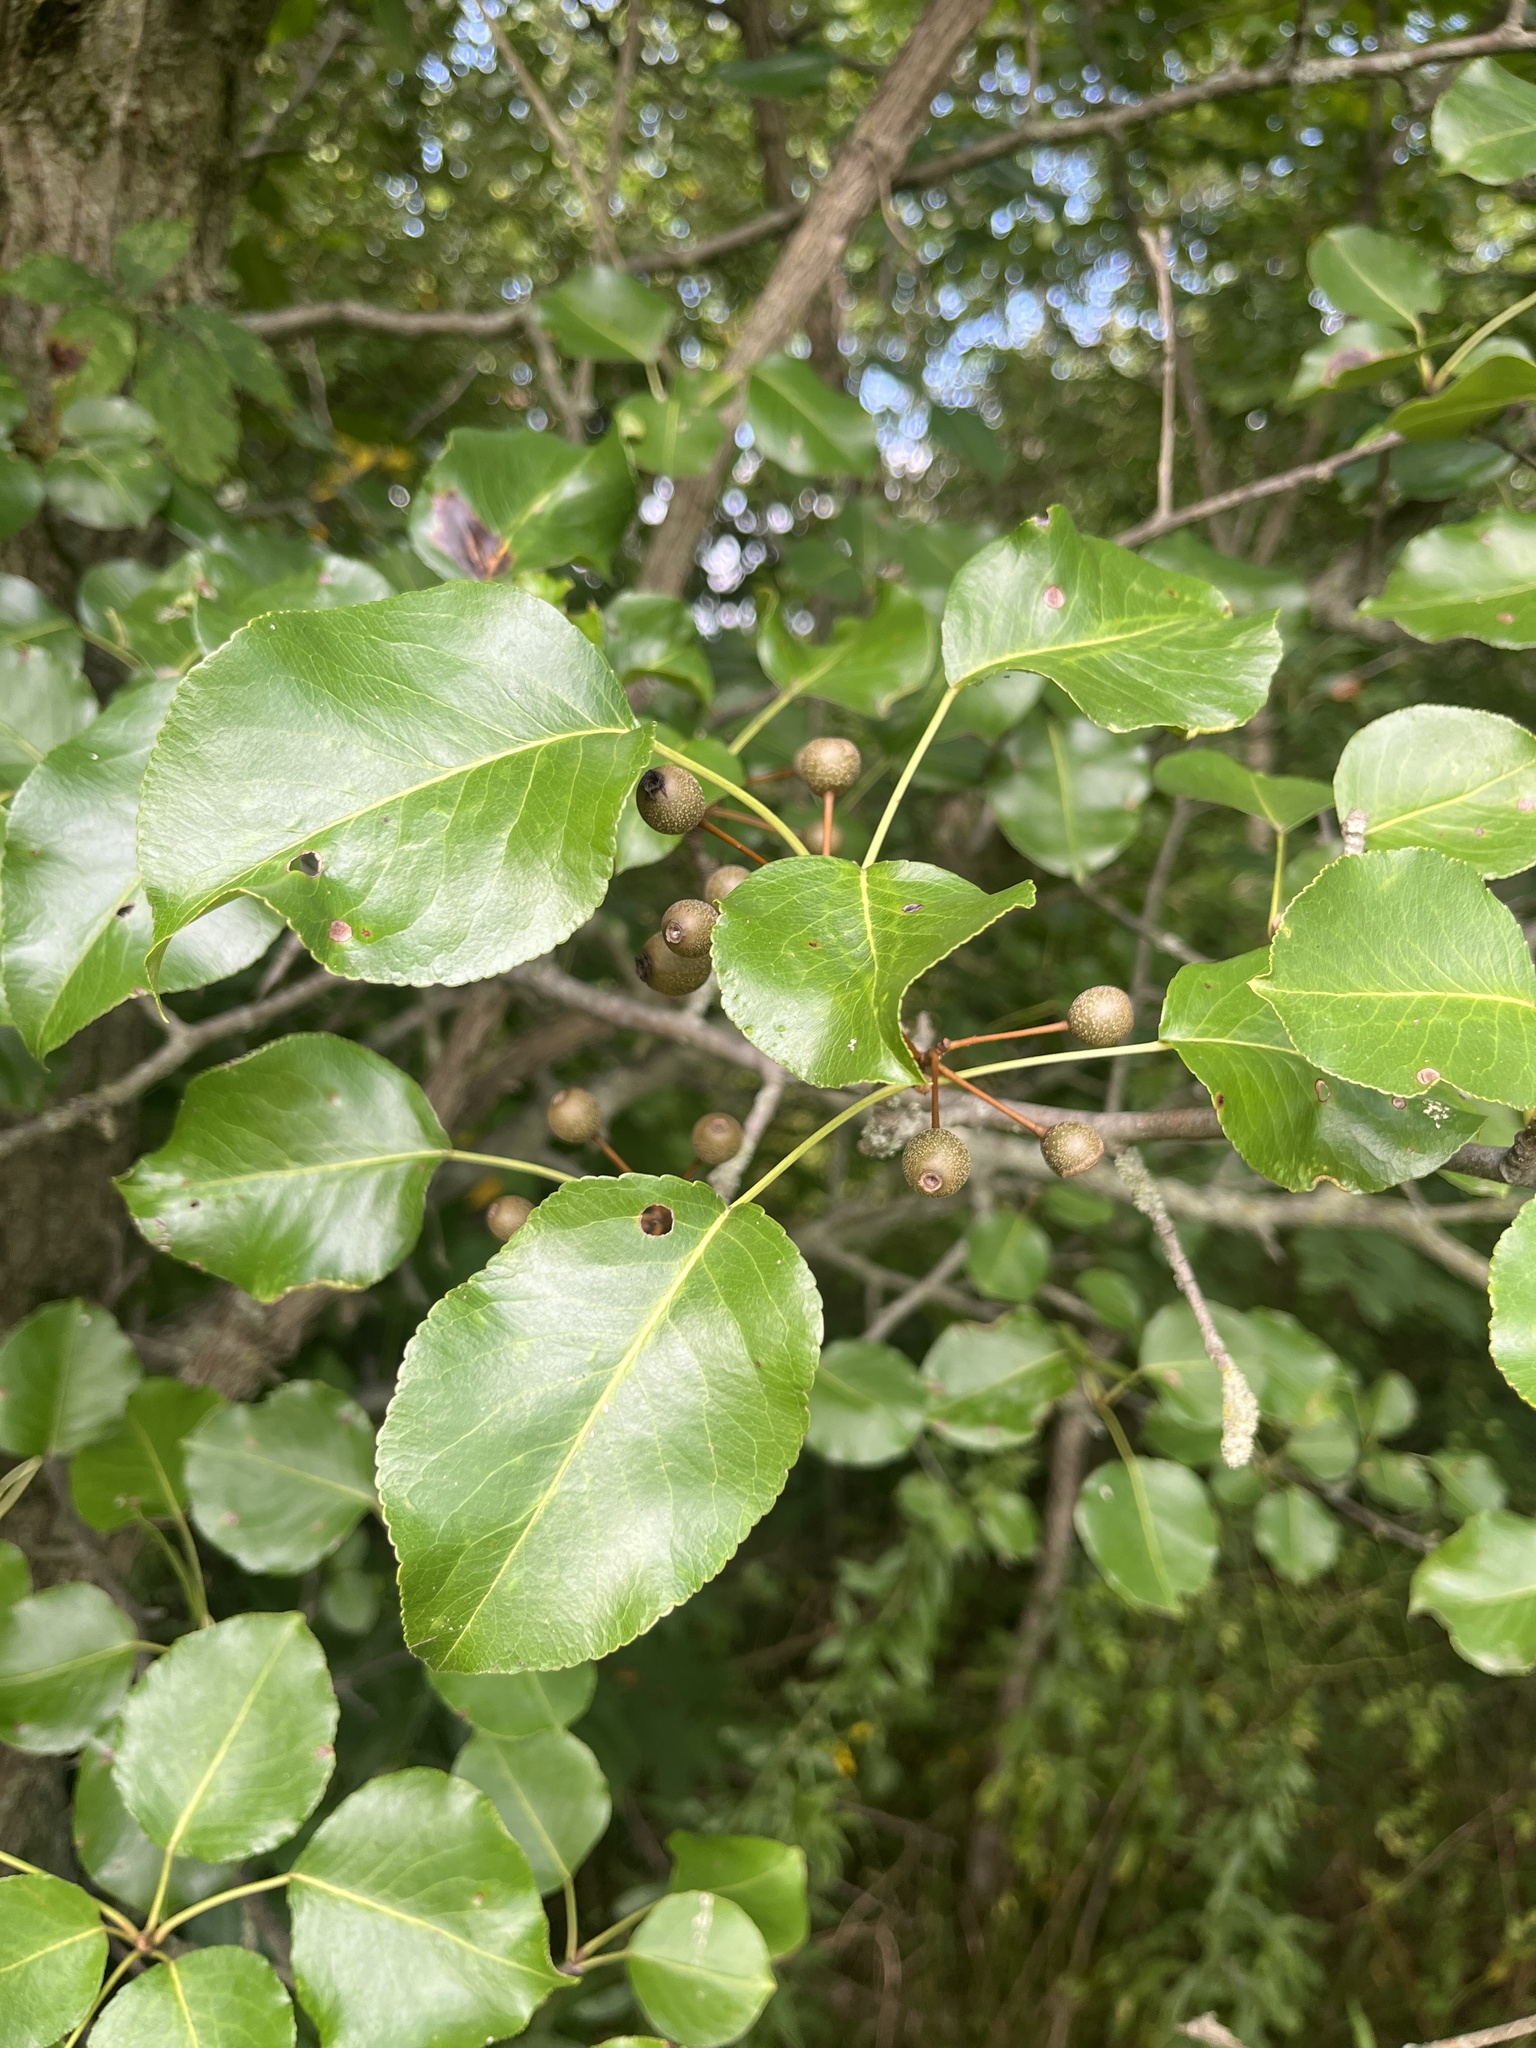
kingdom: Plantae
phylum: Tracheophyta
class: Magnoliopsida
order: Rosales
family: Rosaceae
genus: Pyrus
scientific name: Pyrus calleryana
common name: Callery pear
